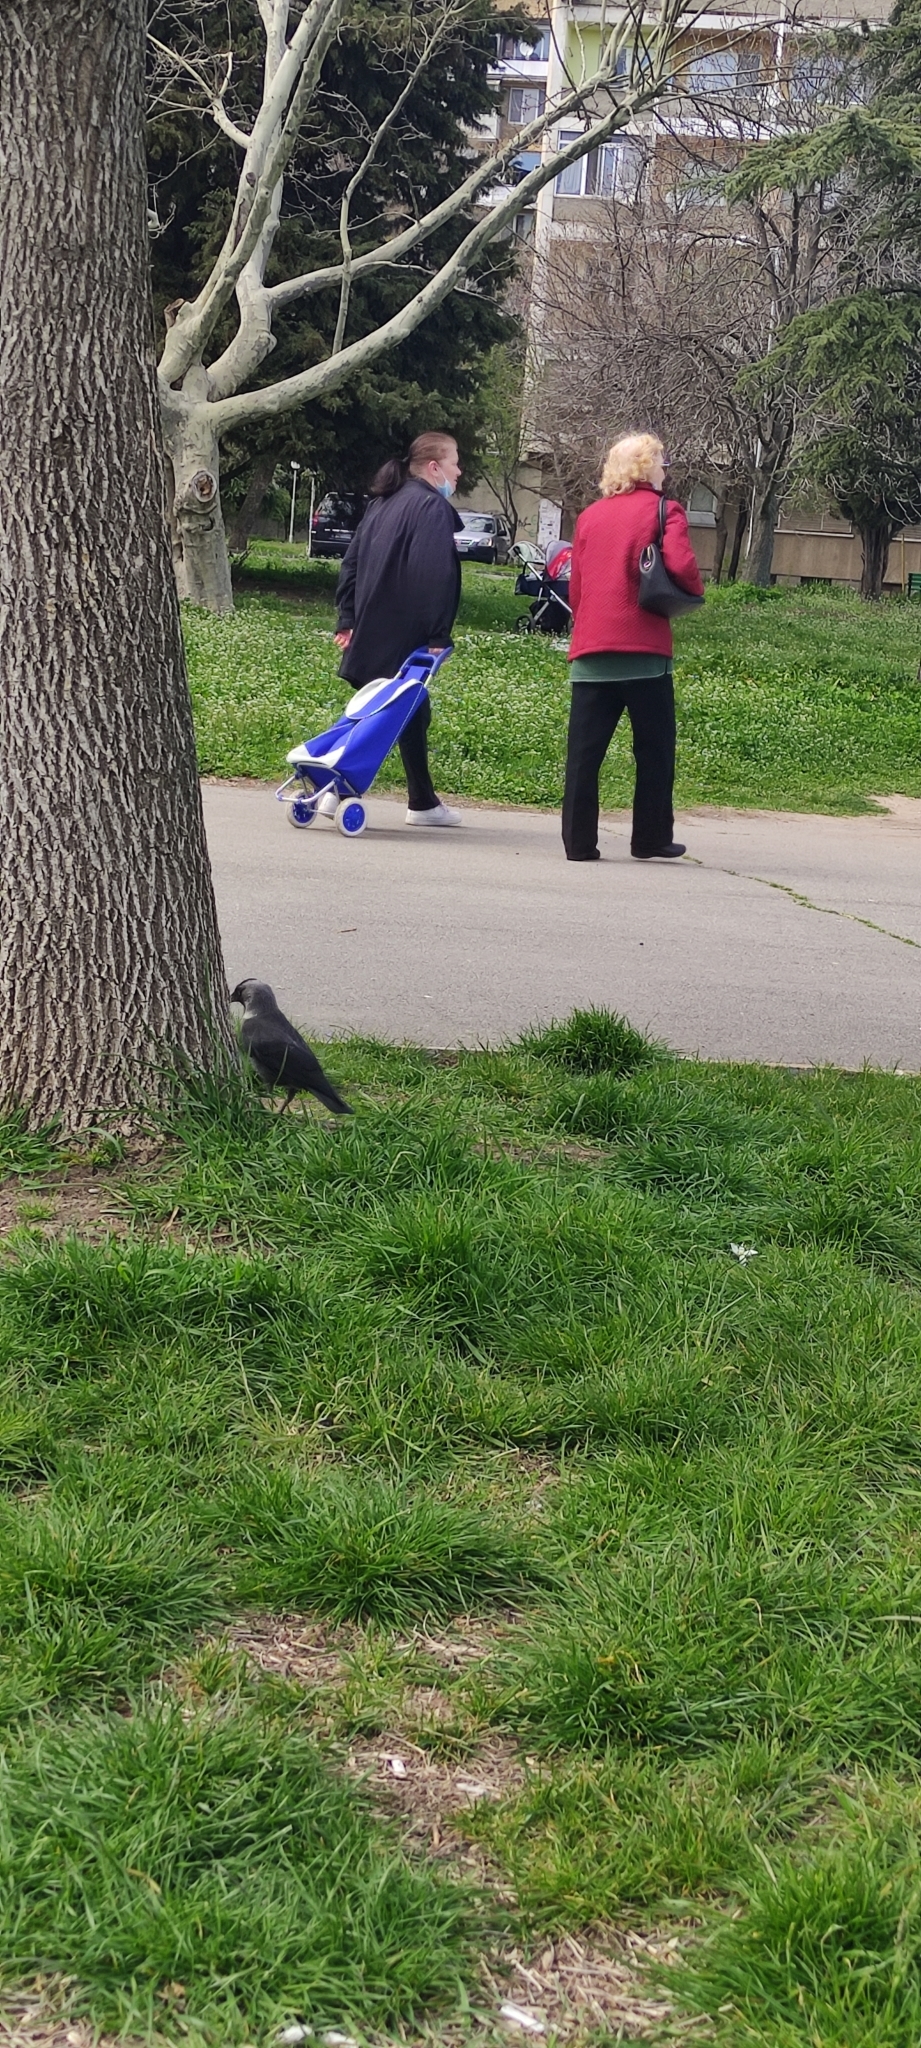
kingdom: Animalia
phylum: Chordata
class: Aves
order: Passeriformes
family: Corvidae
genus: Coloeus
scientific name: Coloeus monedula
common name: Western jackdaw
